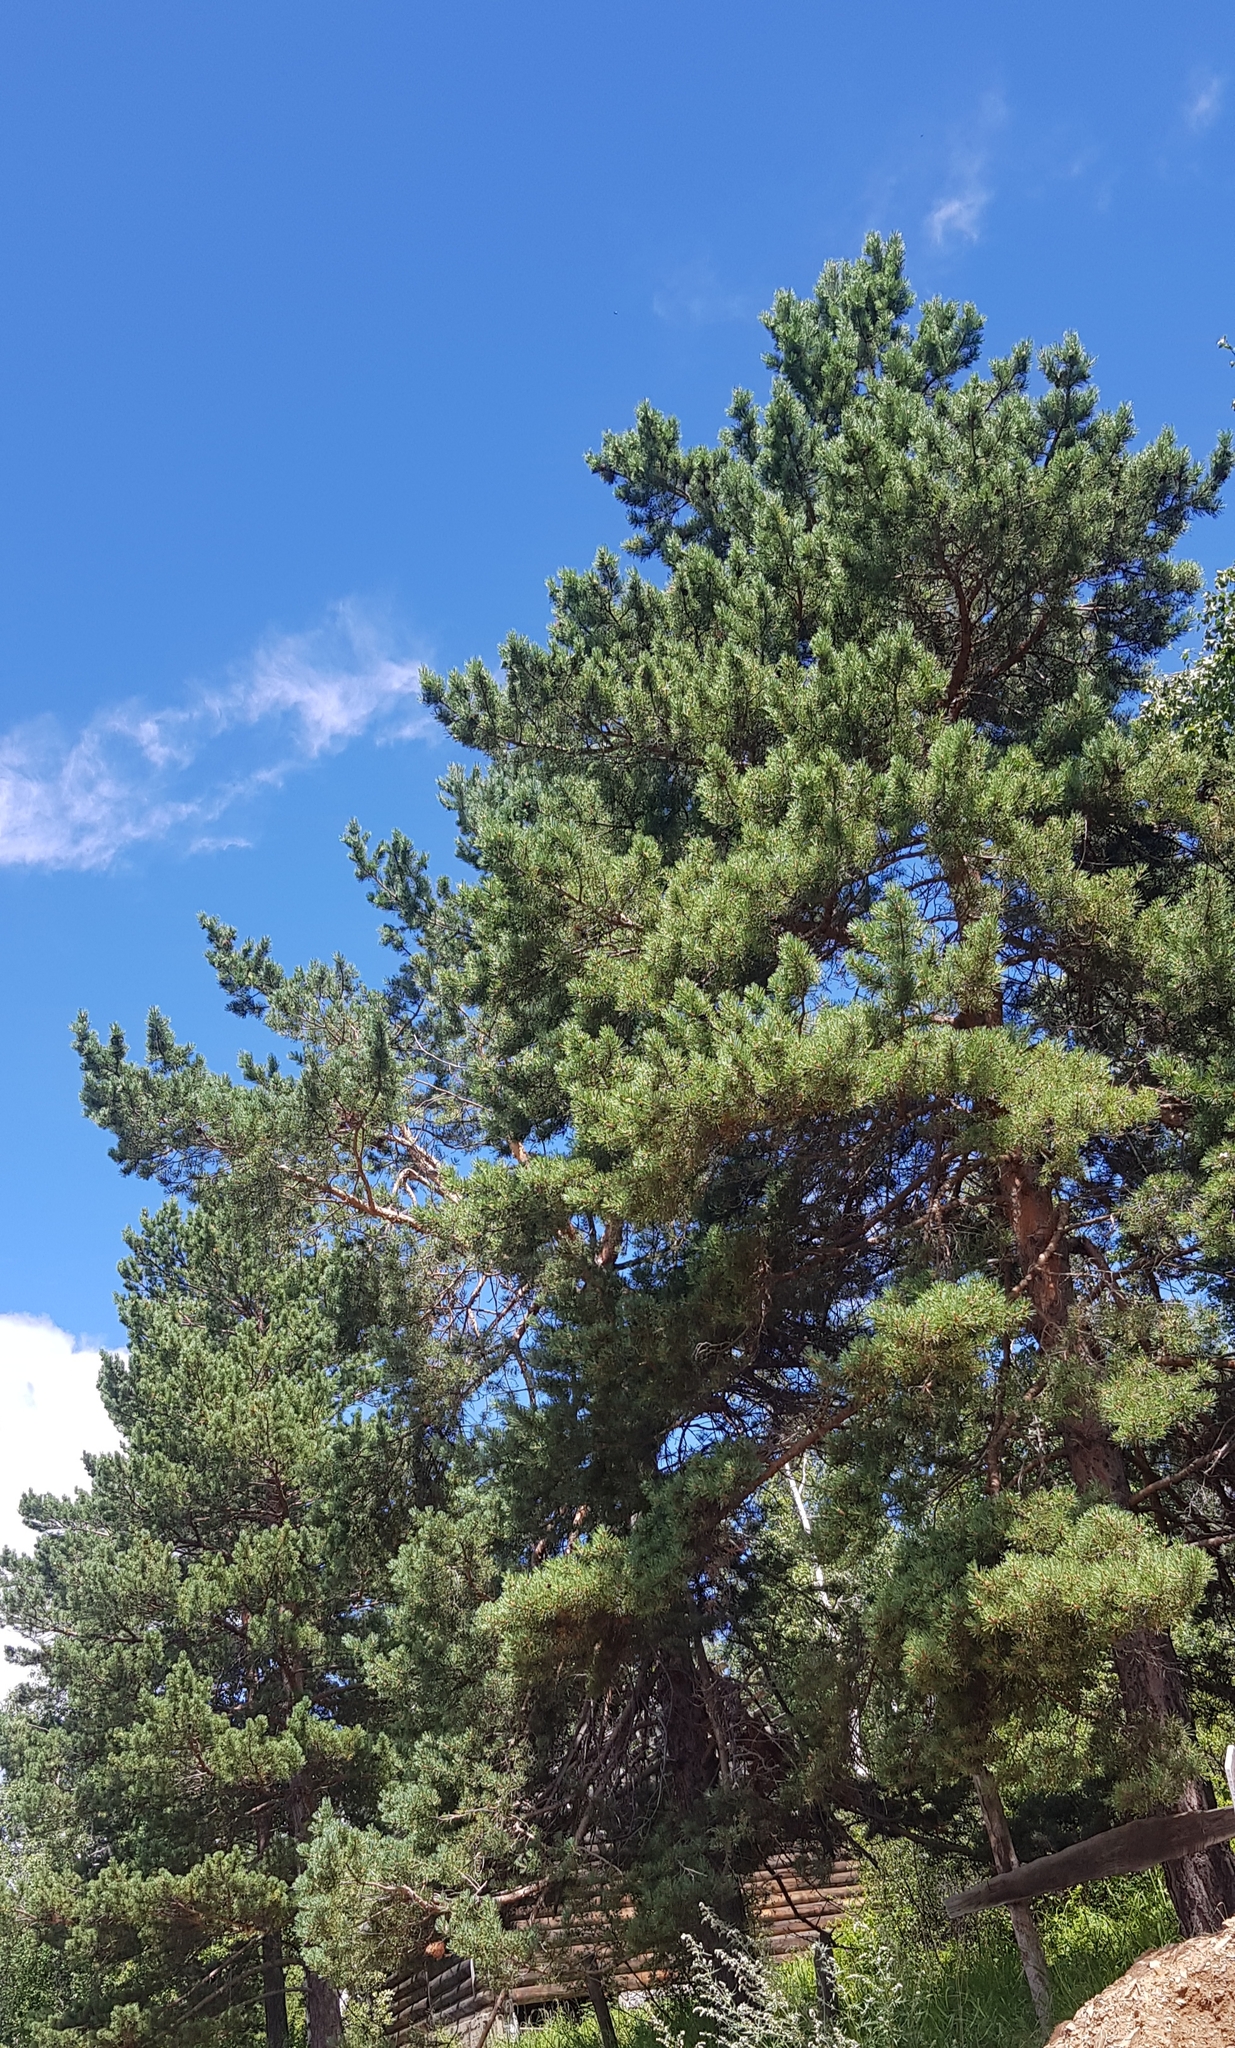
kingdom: Plantae
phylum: Tracheophyta
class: Pinopsida
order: Pinales
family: Pinaceae
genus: Pinus
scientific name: Pinus sylvestris
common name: Scots pine
